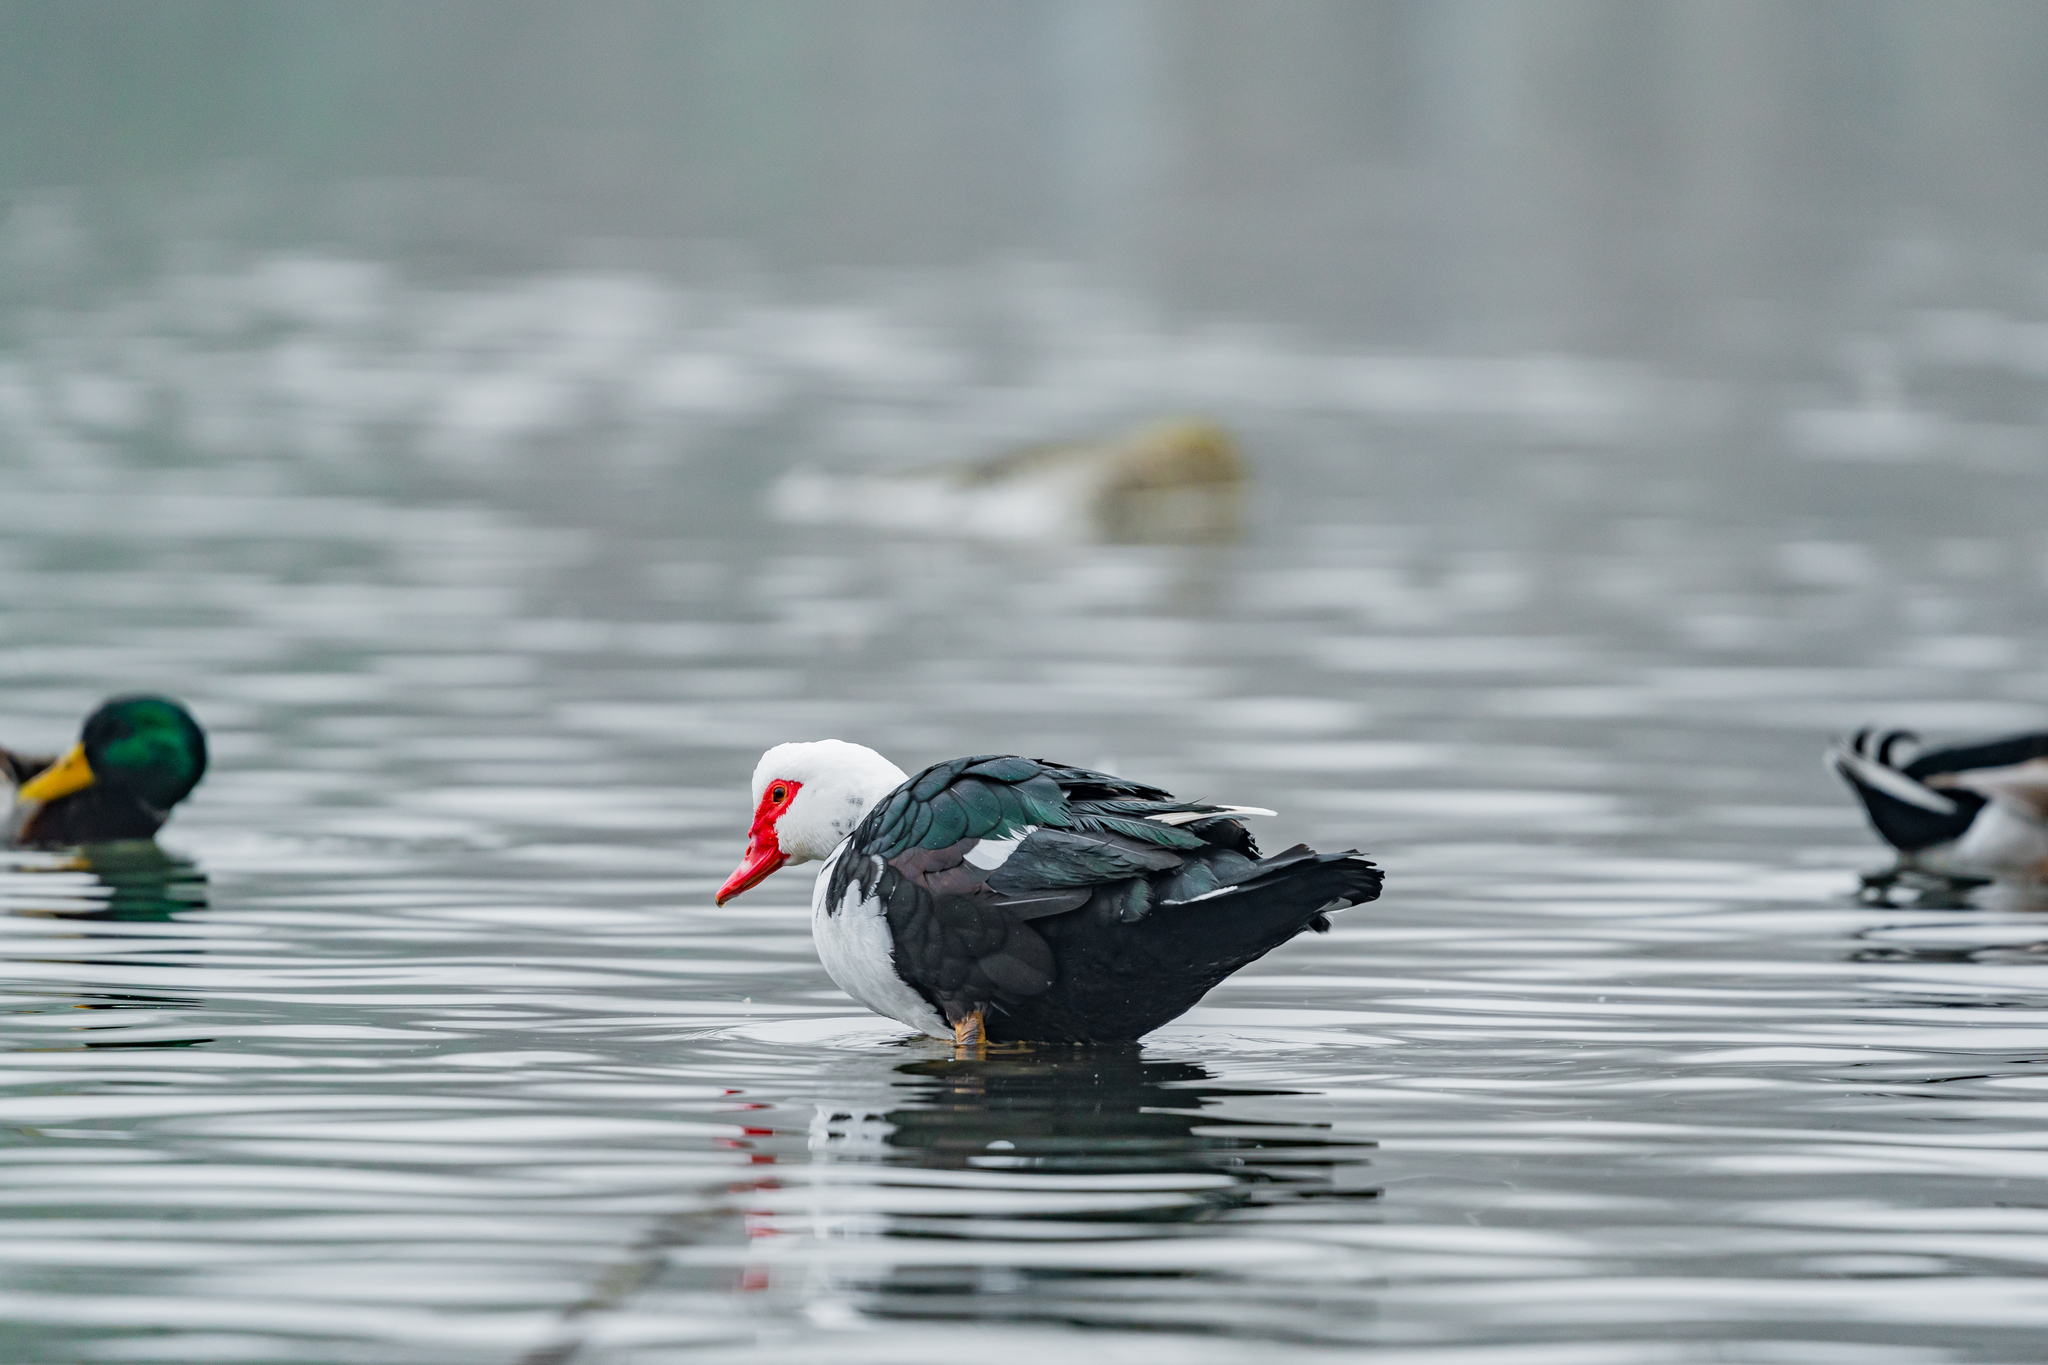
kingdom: Animalia
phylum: Chordata
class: Aves
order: Anseriformes
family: Anatidae
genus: Cairina
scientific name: Cairina moschata
